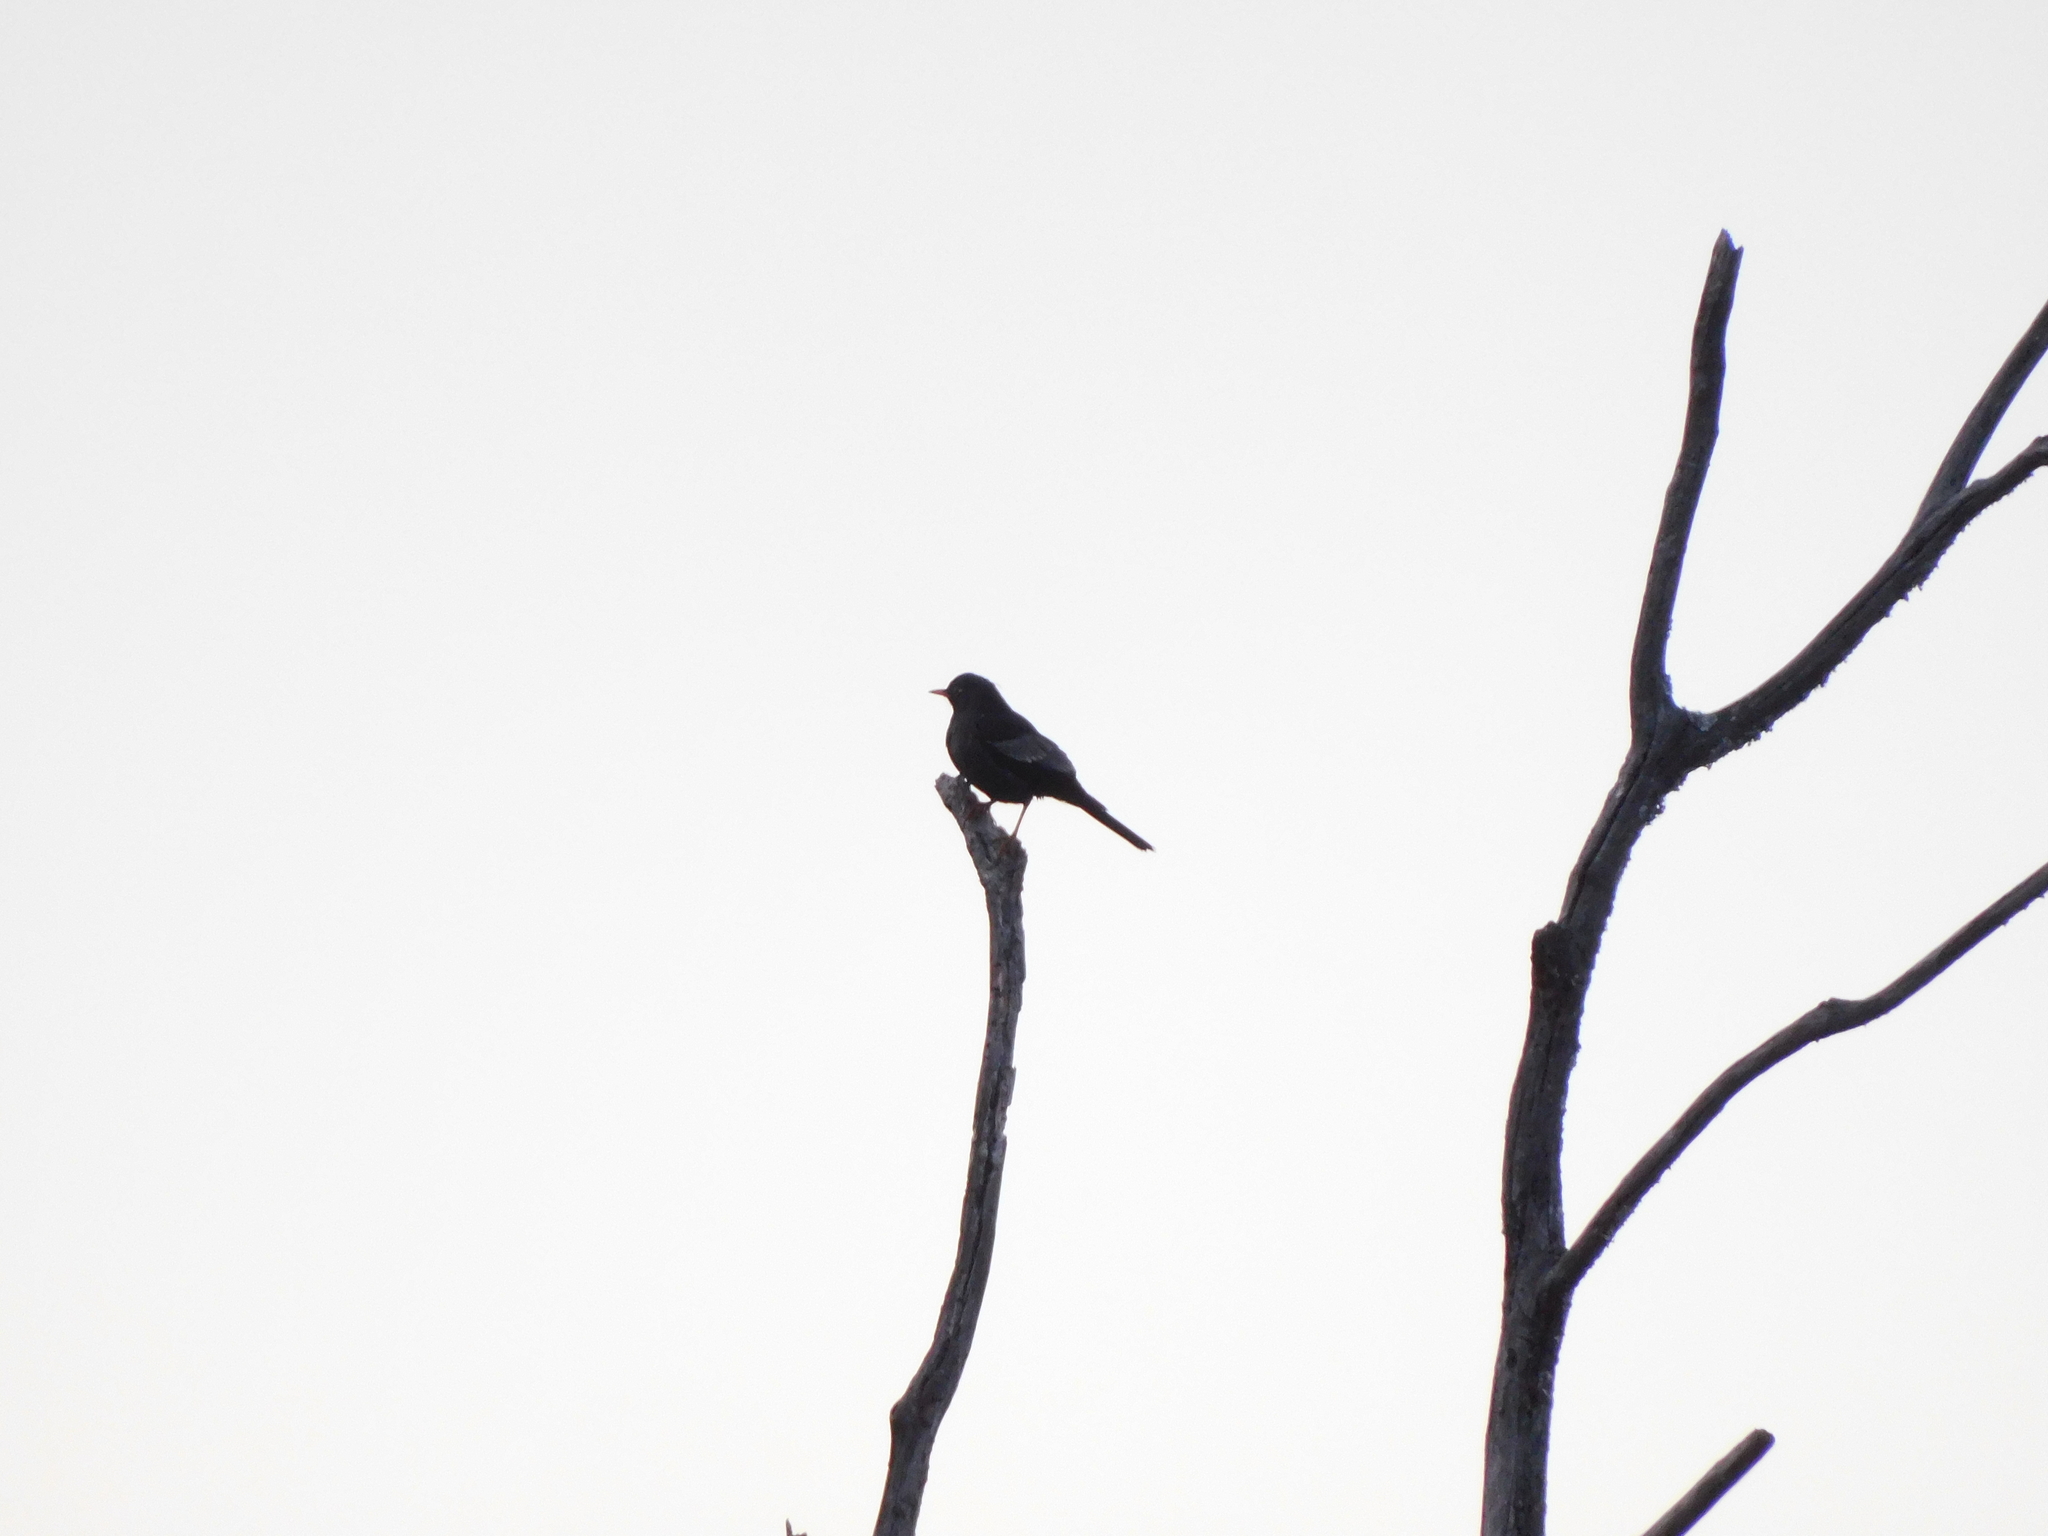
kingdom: Animalia
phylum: Chordata
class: Aves
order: Passeriformes
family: Turdidae
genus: Turdus
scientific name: Turdus boulboul
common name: Grey-winged blackbird
